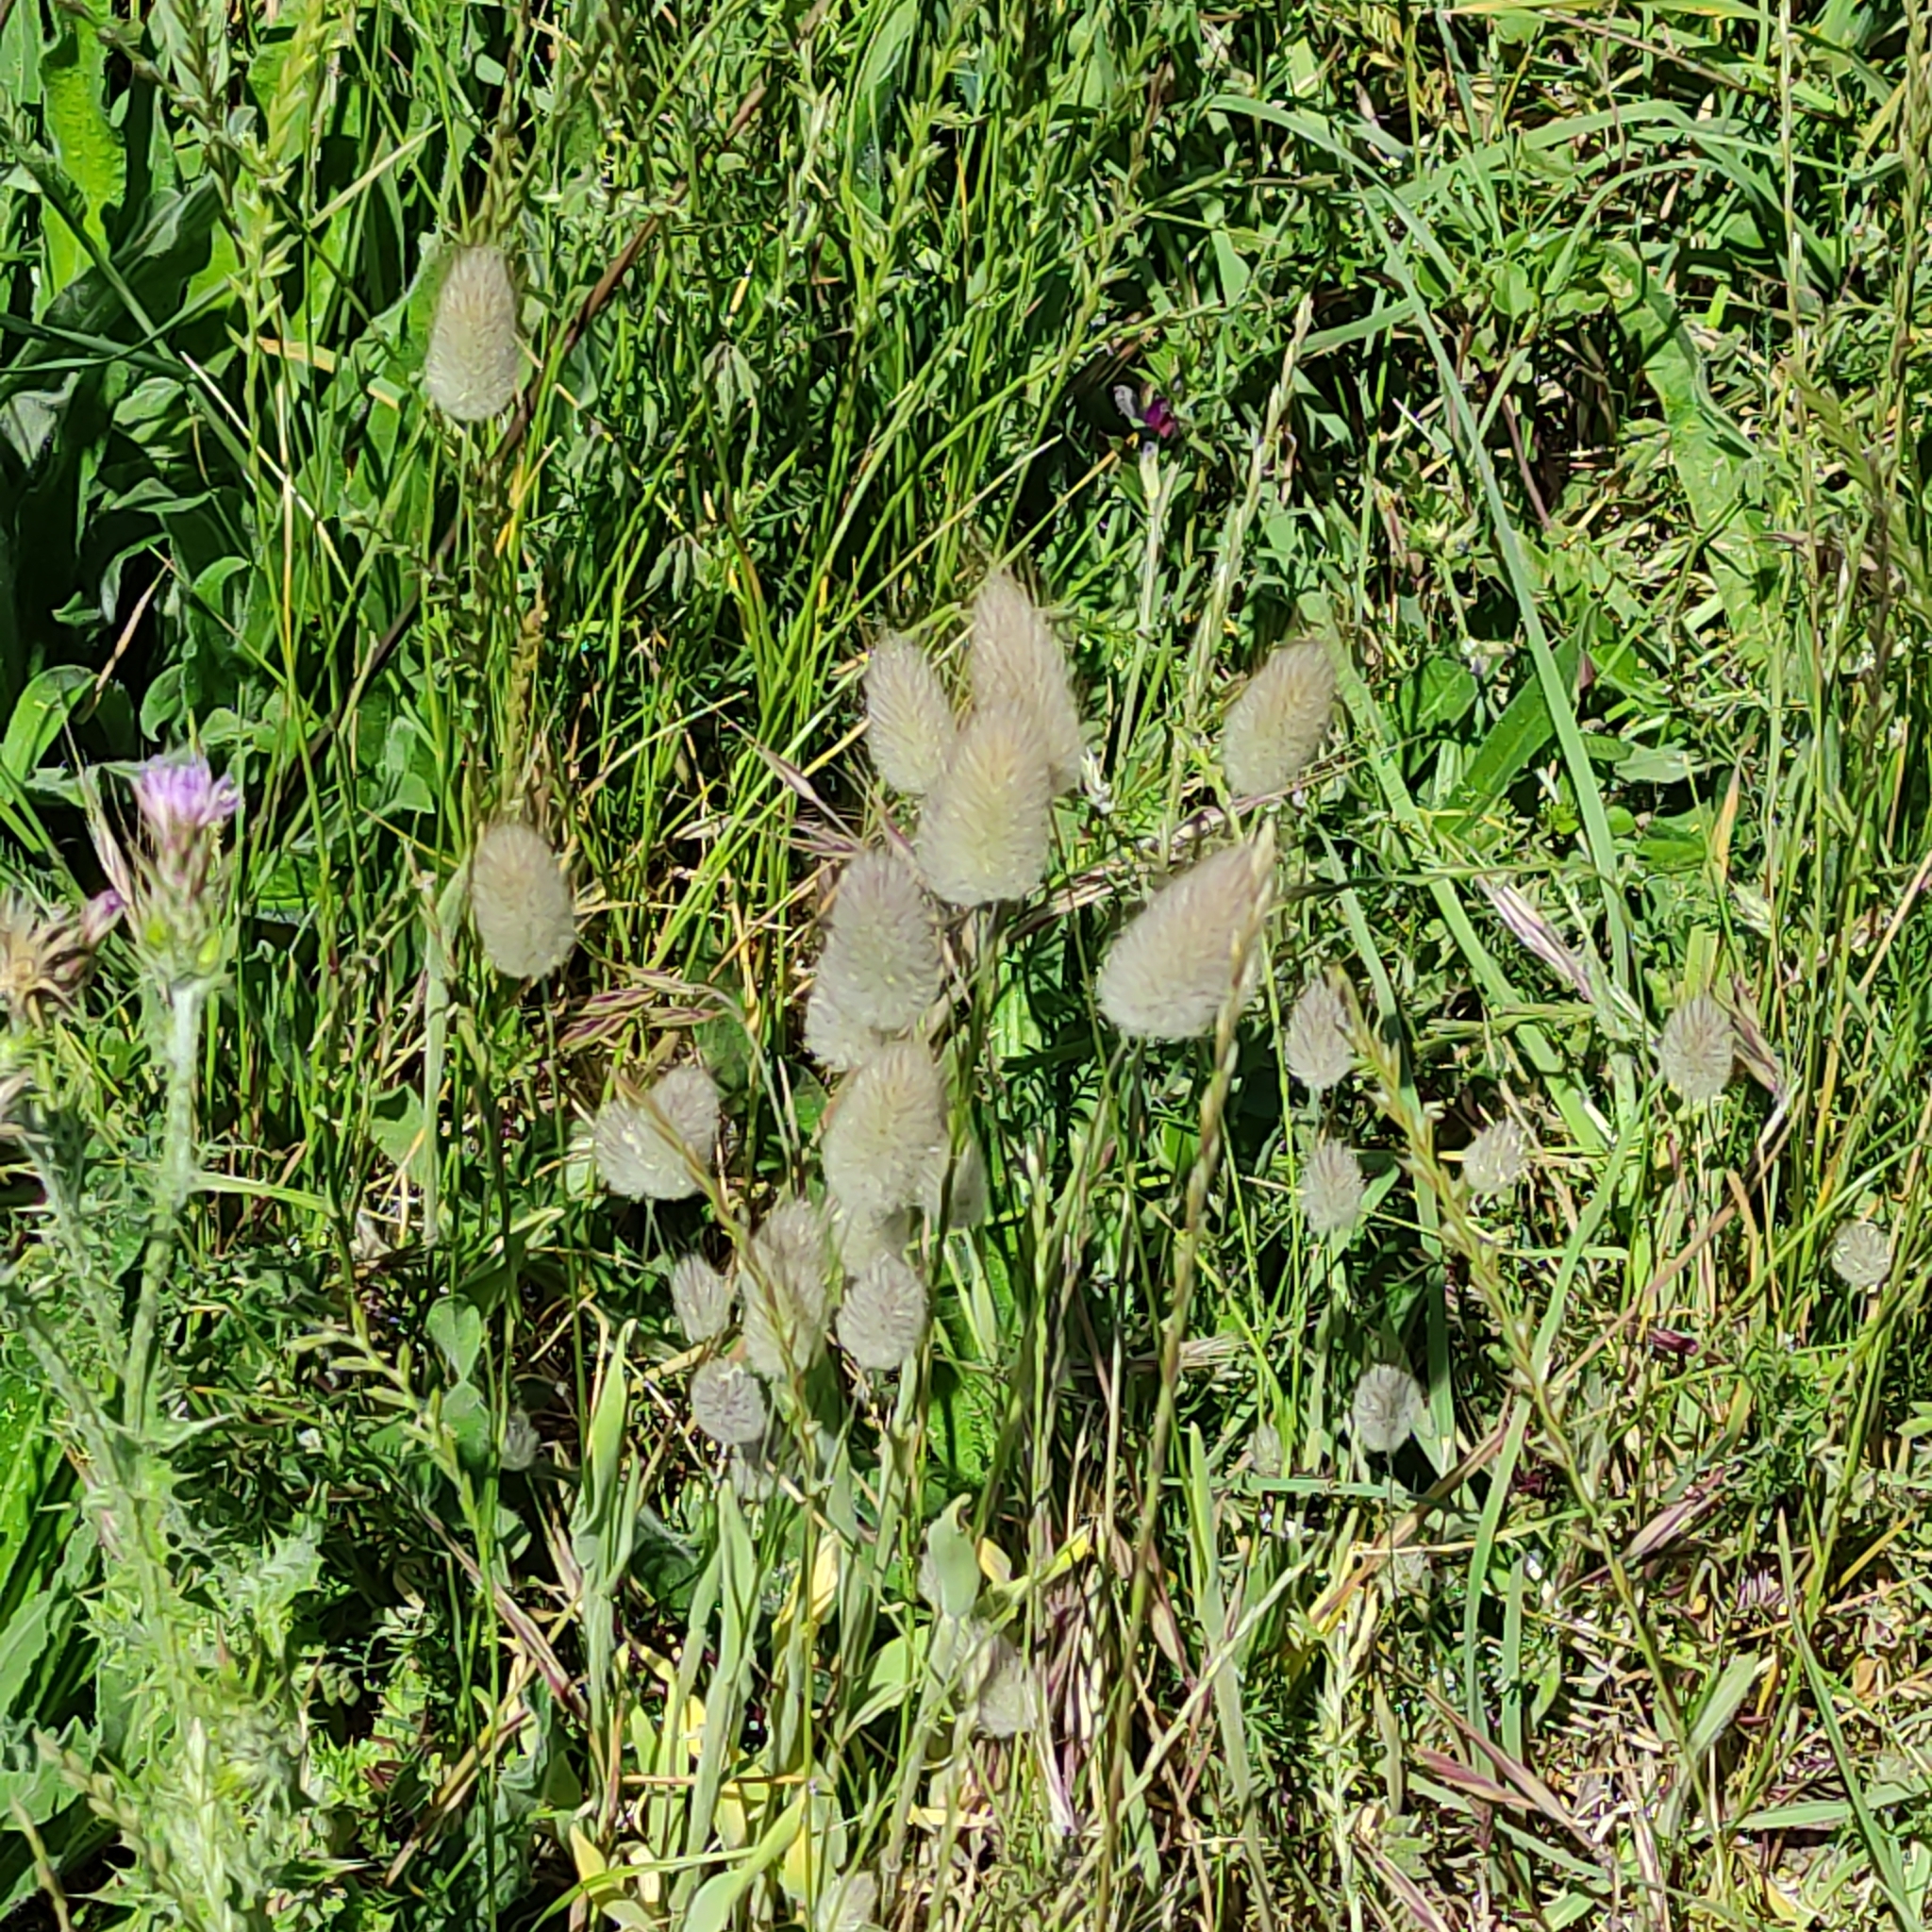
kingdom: Plantae
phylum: Tracheophyta
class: Liliopsida
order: Poales
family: Poaceae
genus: Lagurus
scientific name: Lagurus ovatus
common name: Hare's-tail
